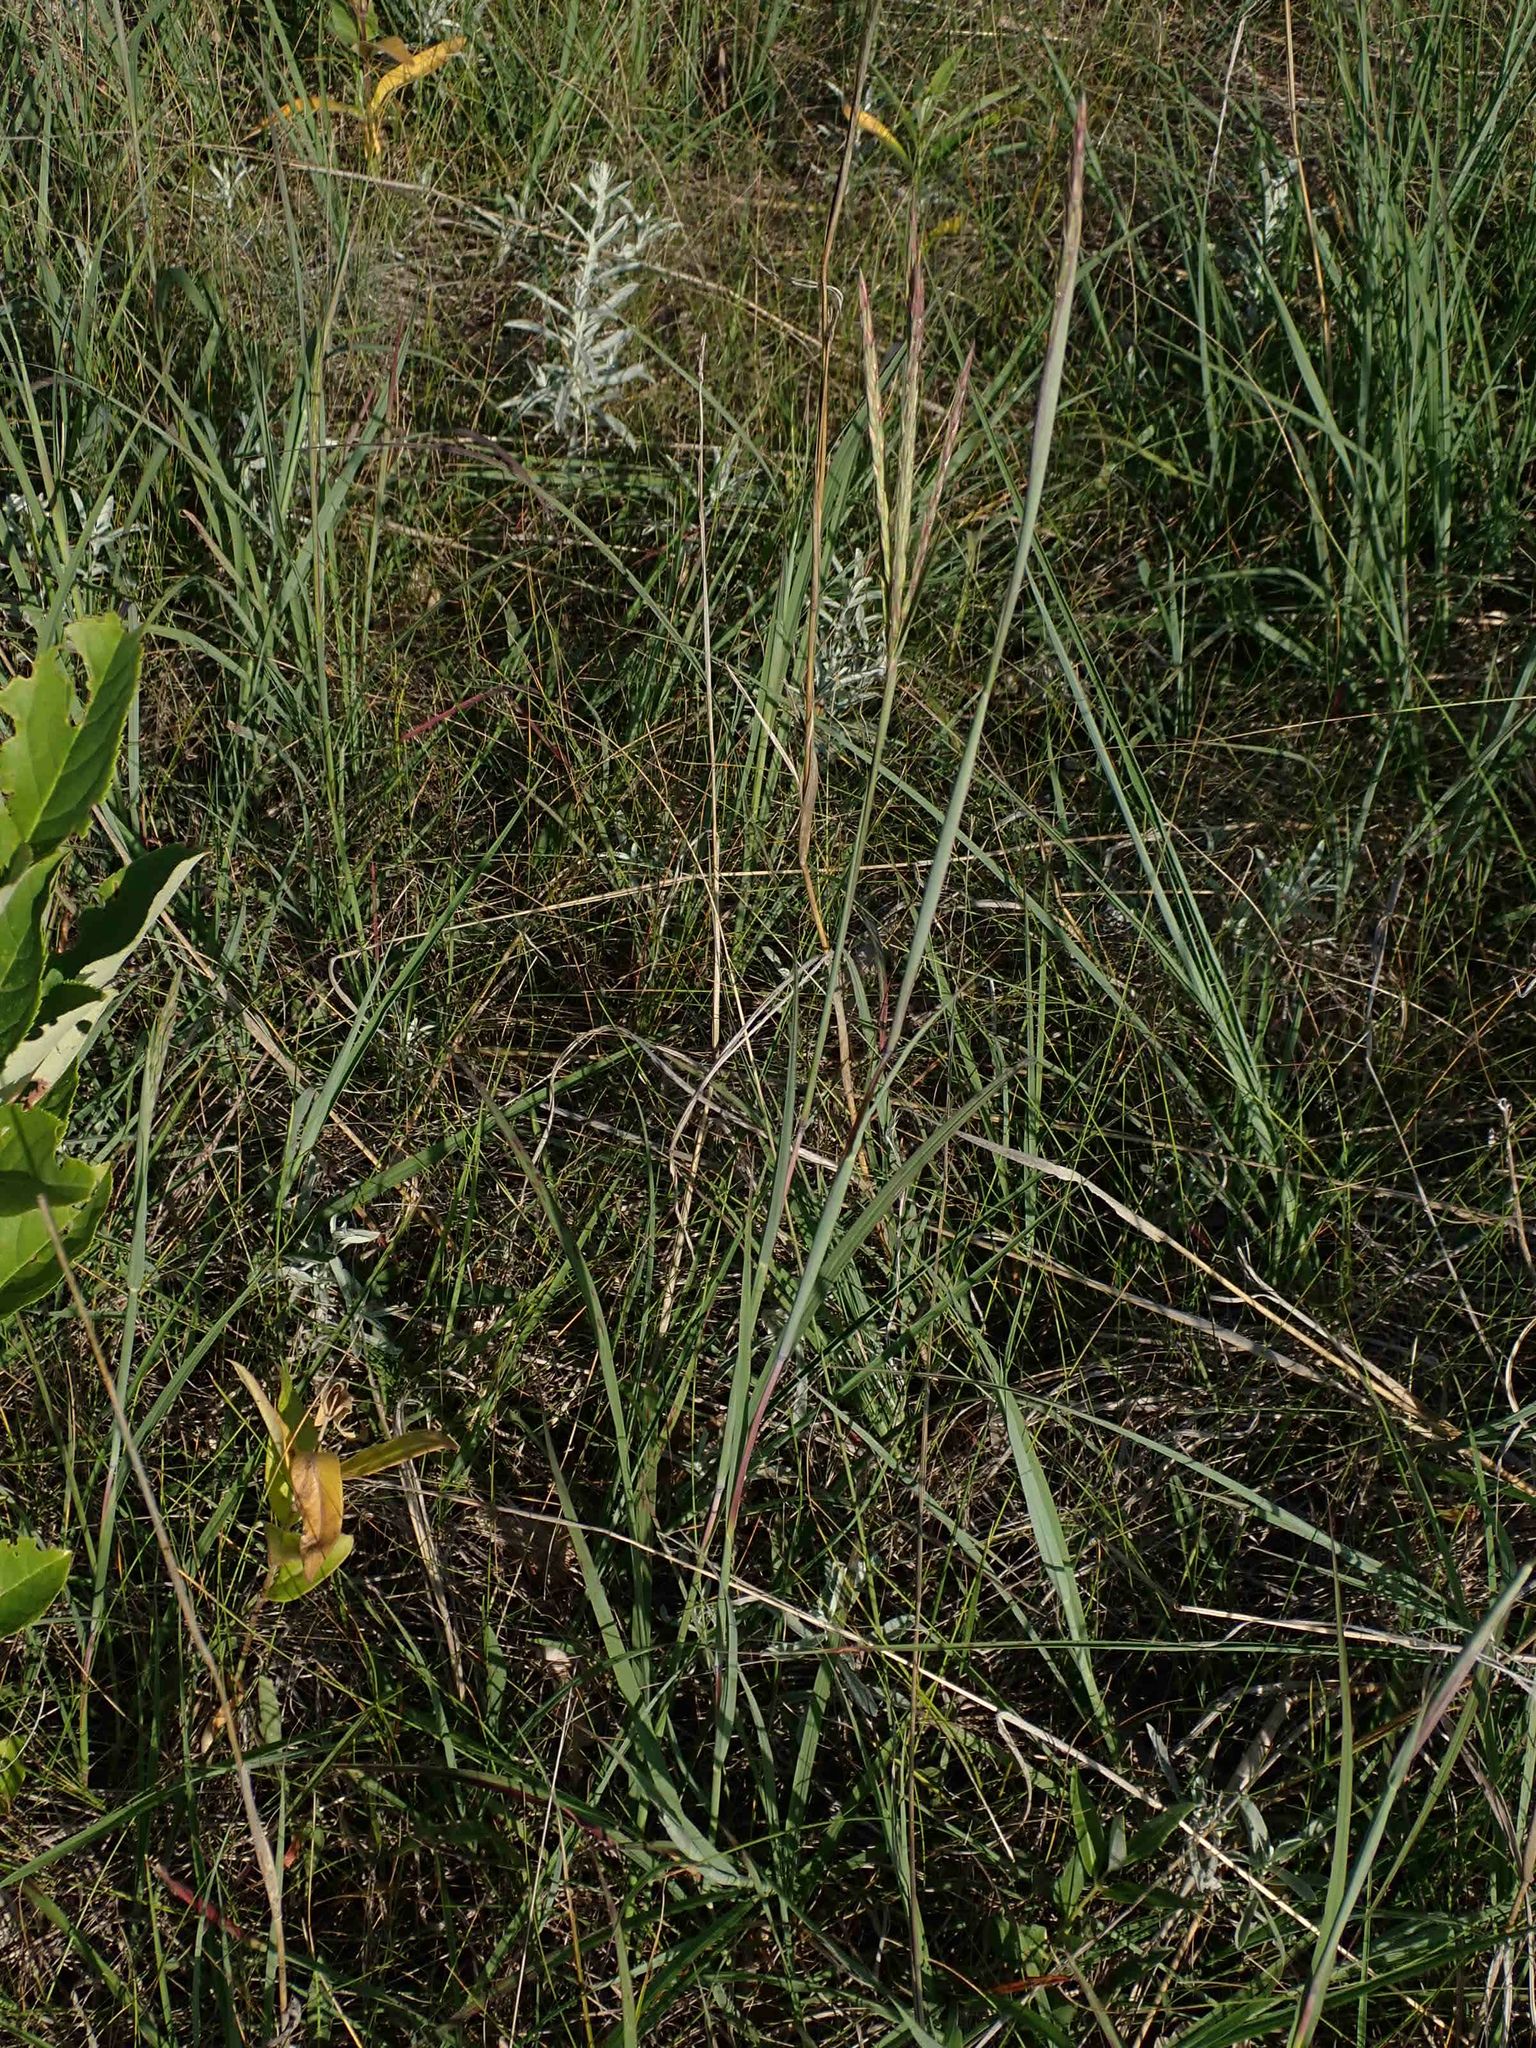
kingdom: Plantae
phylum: Tracheophyta
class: Liliopsida
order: Poales
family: Poaceae
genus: Andropogon
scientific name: Andropogon gerardi
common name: Big bluestem
